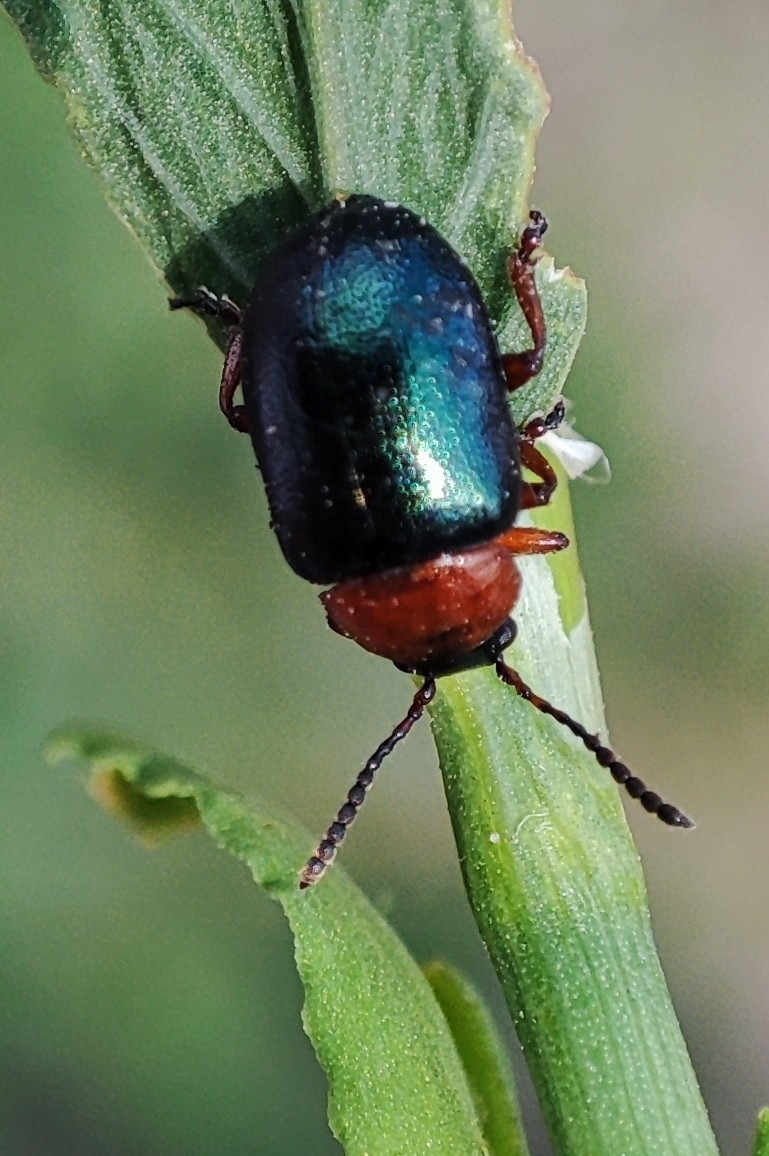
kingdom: Animalia
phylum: Arthropoda
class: Insecta
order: Coleoptera
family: Chrysomelidae
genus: Gastrophysa
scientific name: Gastrophysa polygoni
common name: Knotweed leaf beetle
